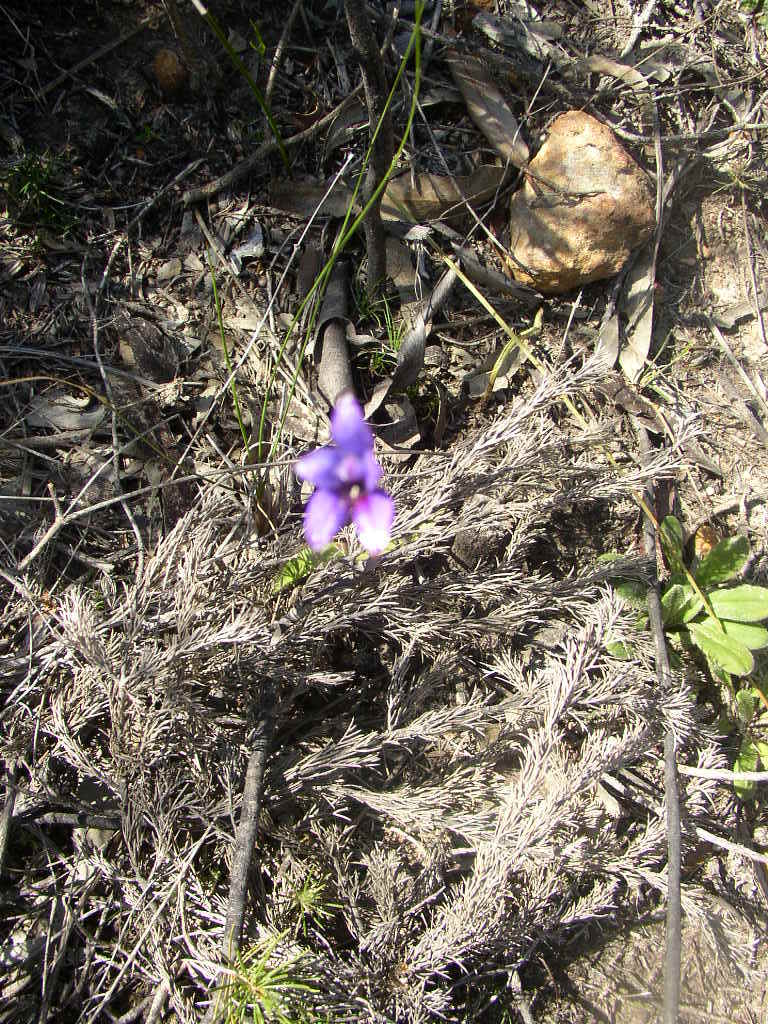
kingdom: Plantae
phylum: Tracheophyta
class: Liliopsida
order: Asparagales
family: Orchidaceae
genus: Caladenia
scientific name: Caladenia brunonis
